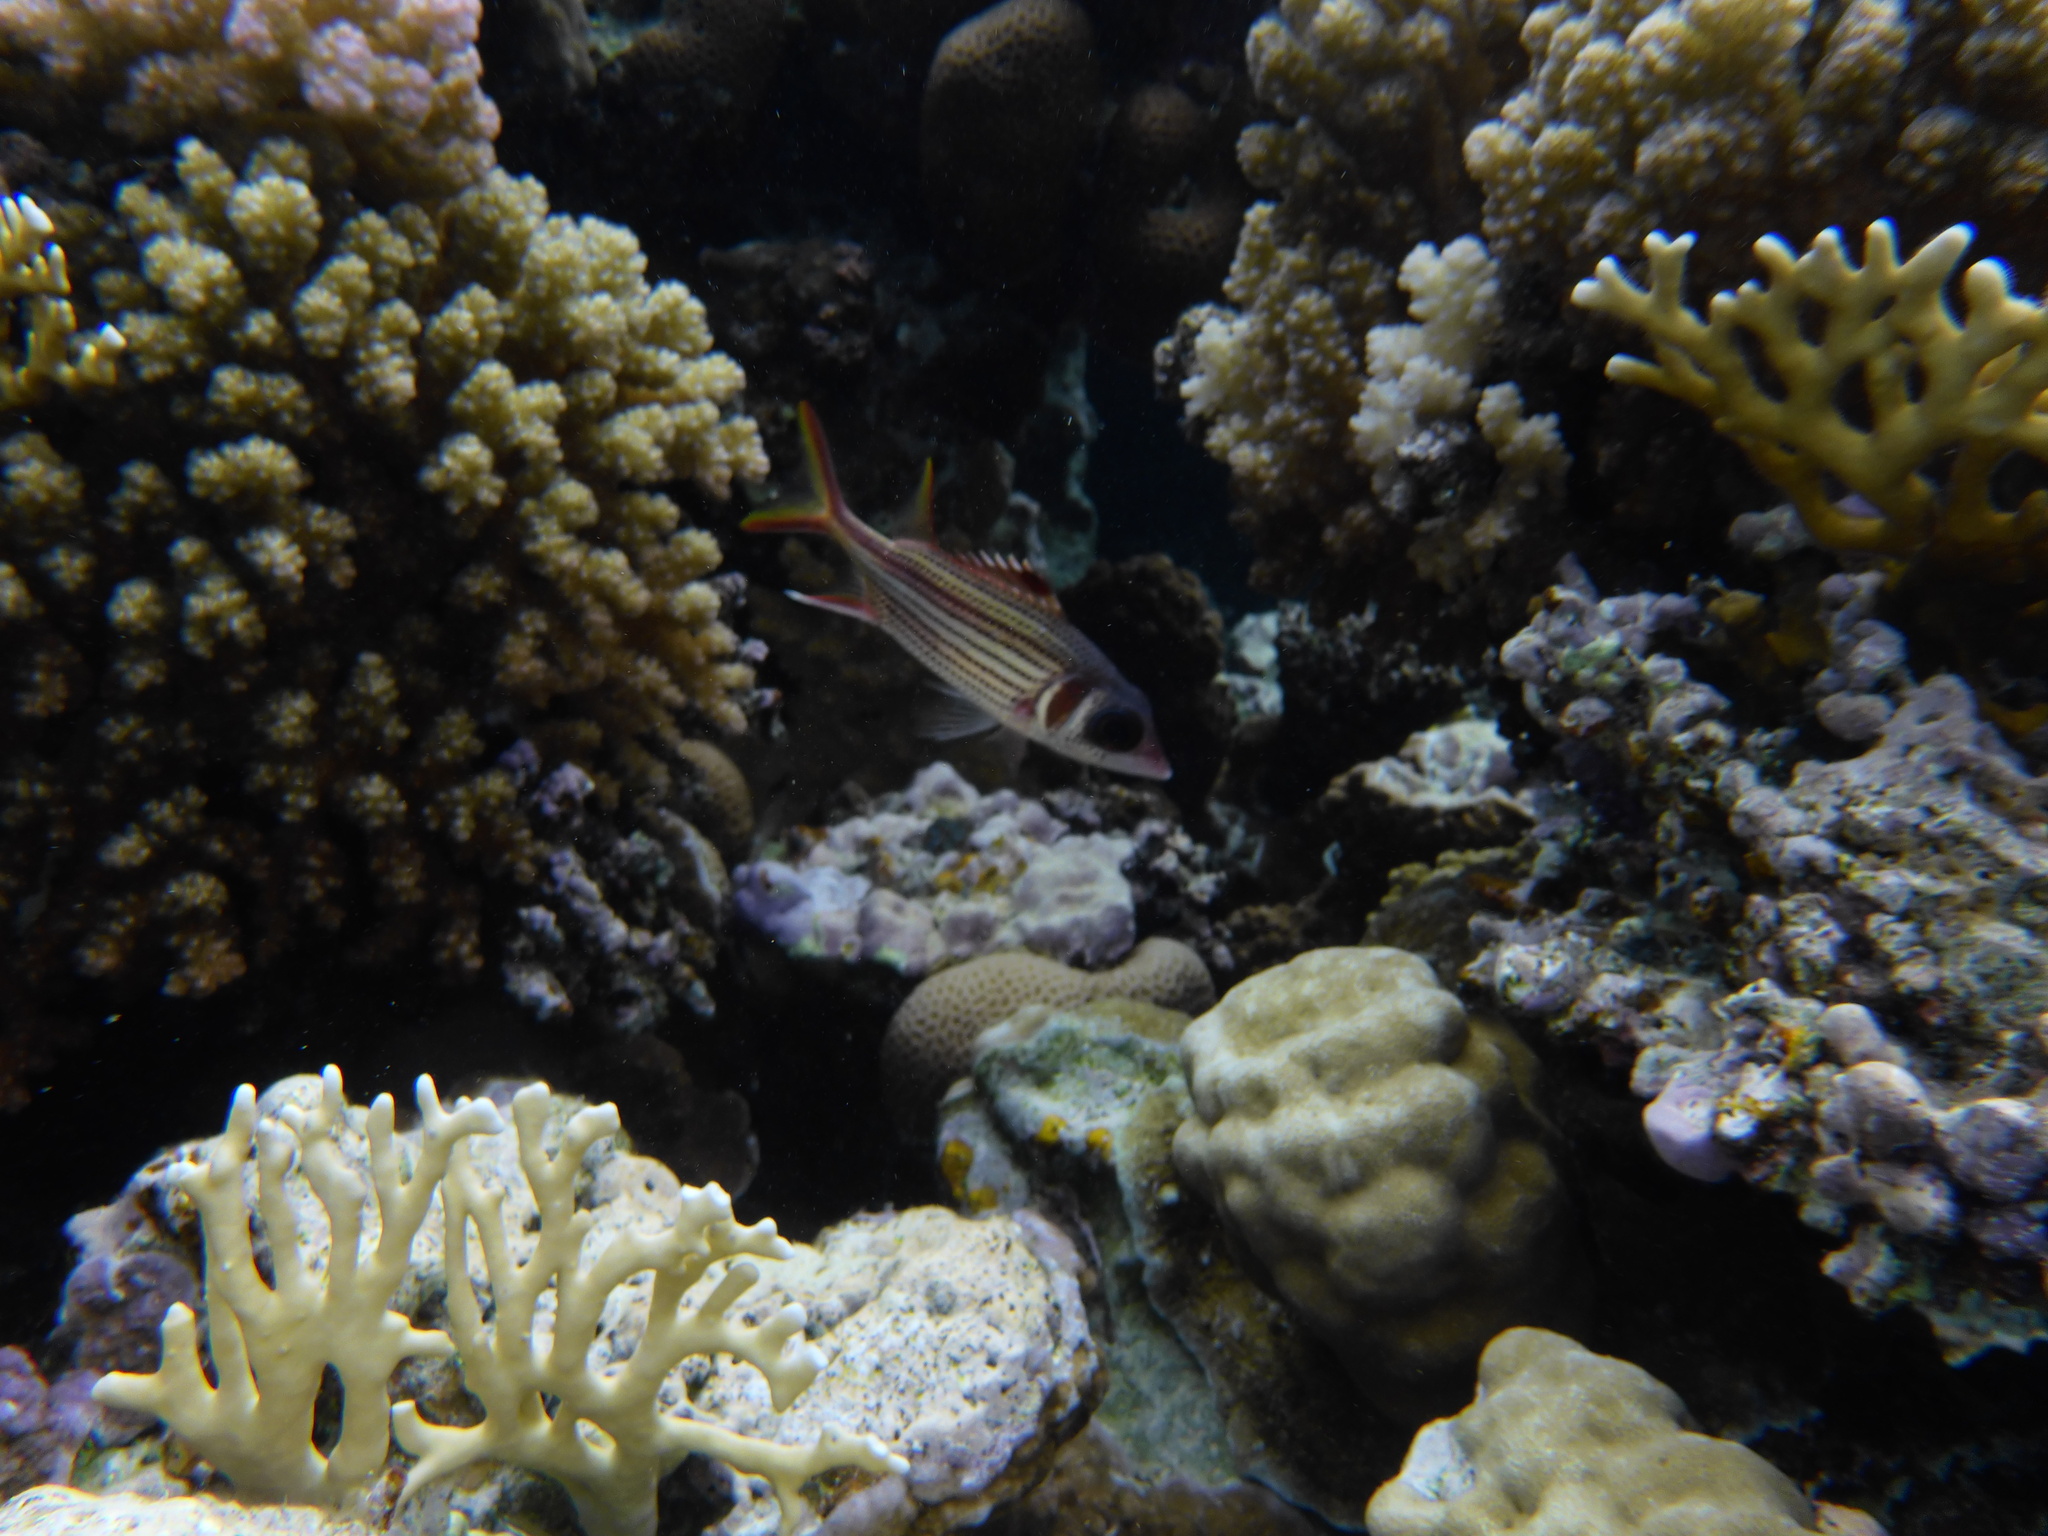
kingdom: Animalia
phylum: Chordata
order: Beryciformes
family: Holocentridae
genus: Neoniphon
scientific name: Neoniphon sammara
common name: Sammara squirrelfish
